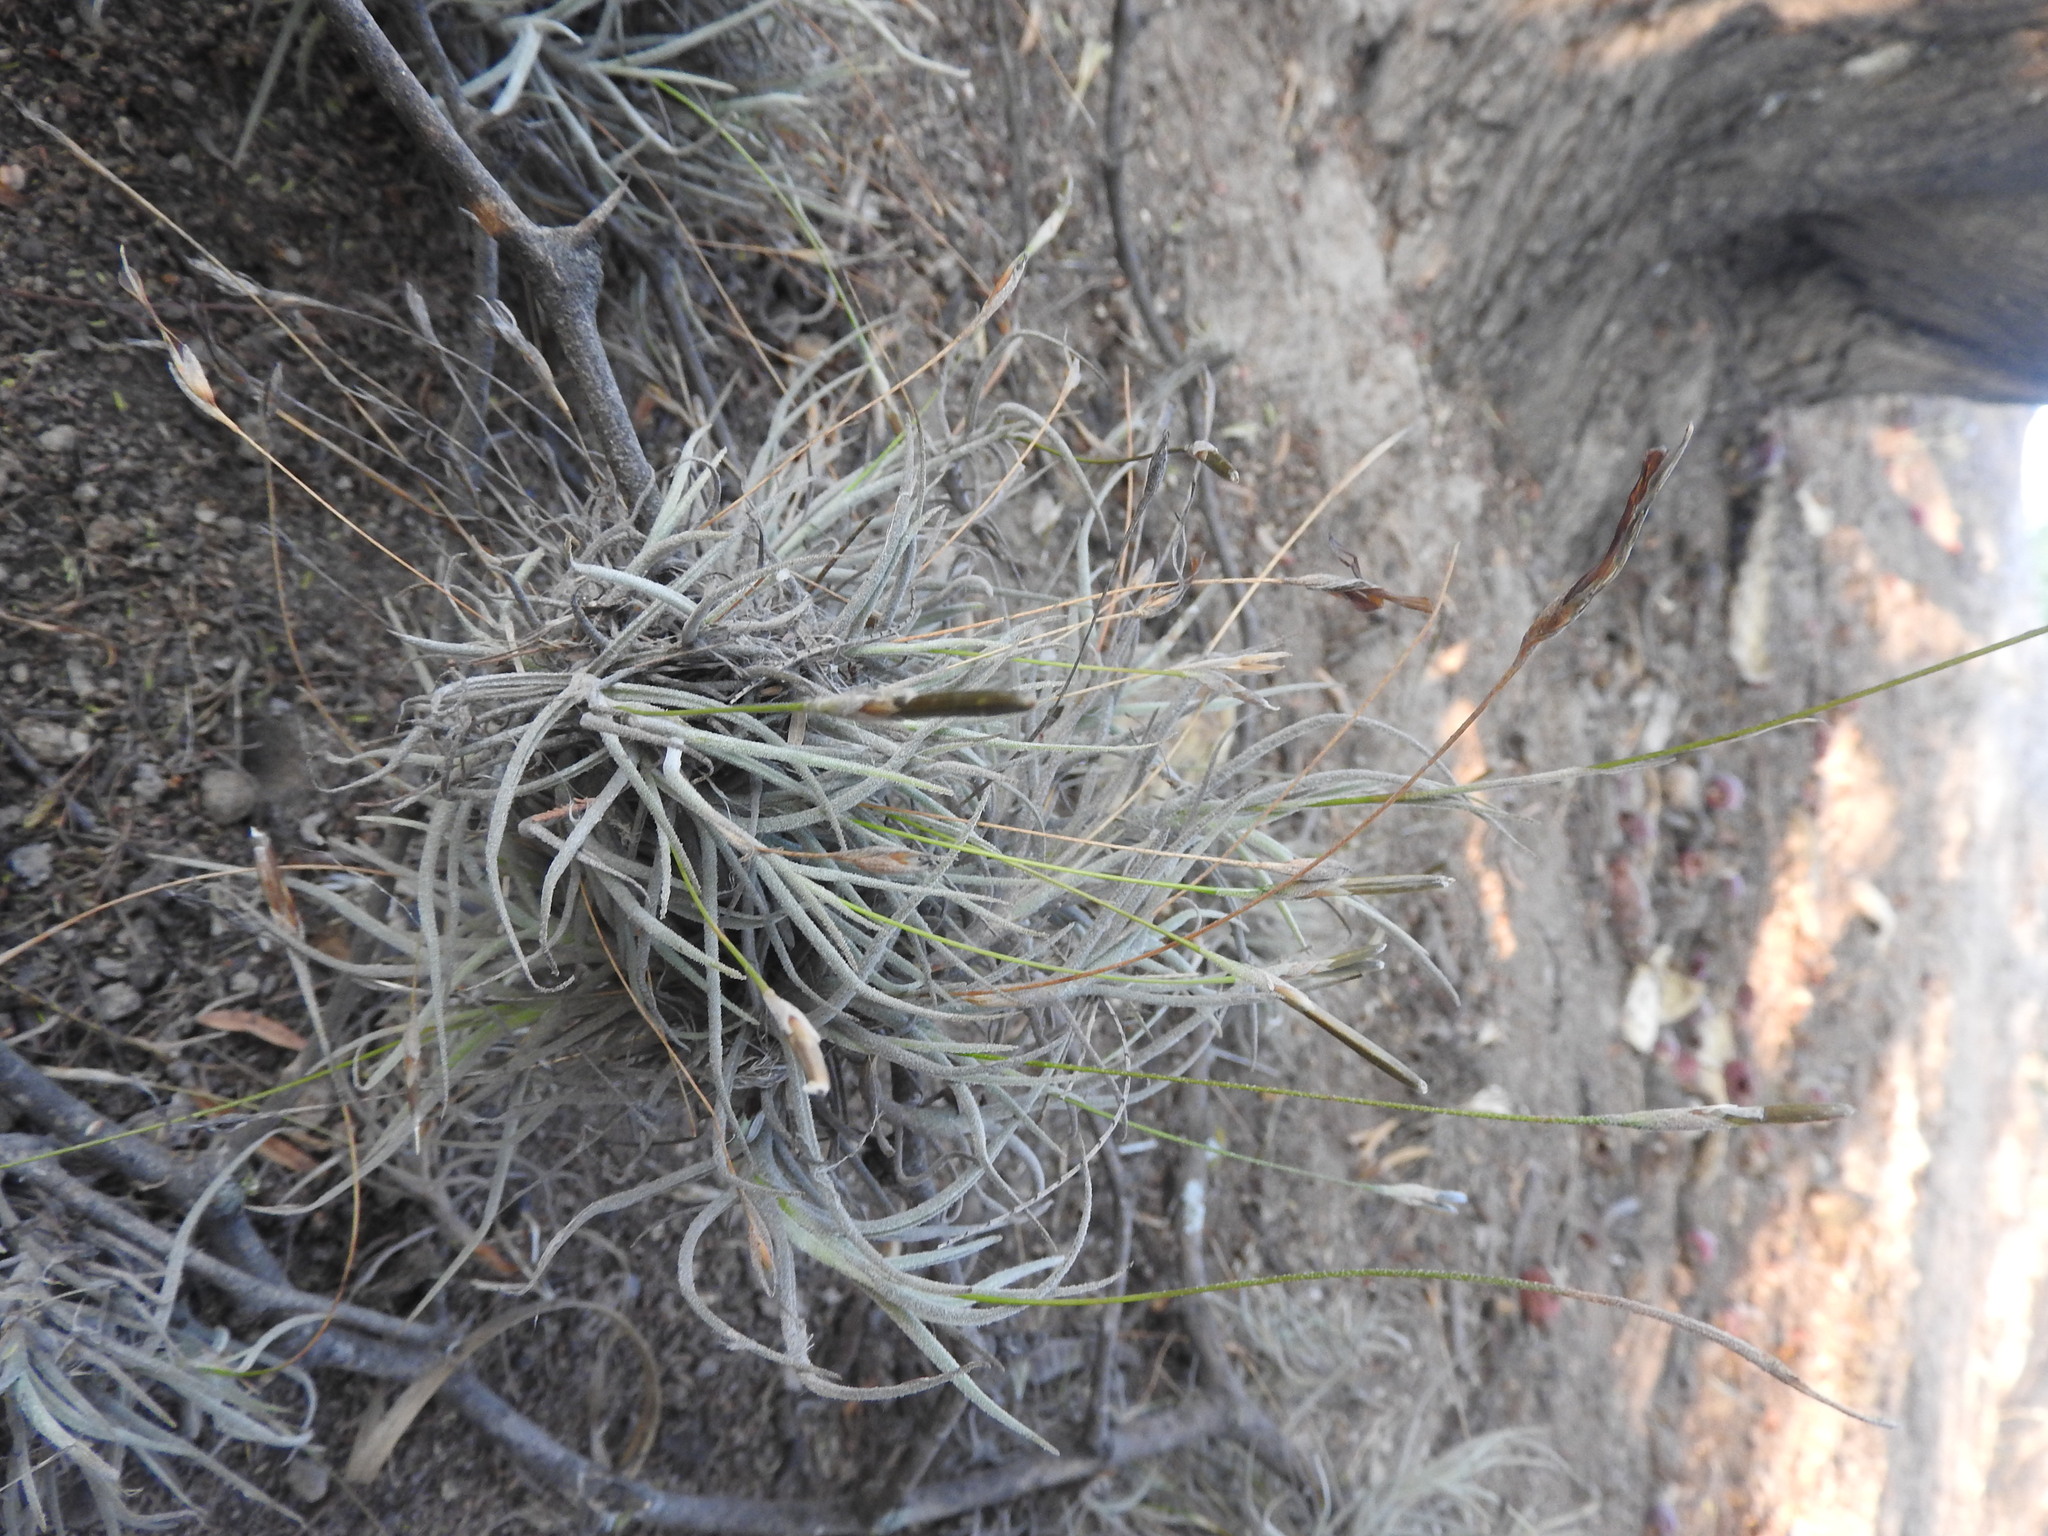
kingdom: Plantae
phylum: Tracheophyta
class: Liliopsida
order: Poales
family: Bromeliaceae
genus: Tillandsia
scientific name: Tillandsia recurvata
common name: Small ballmoss
